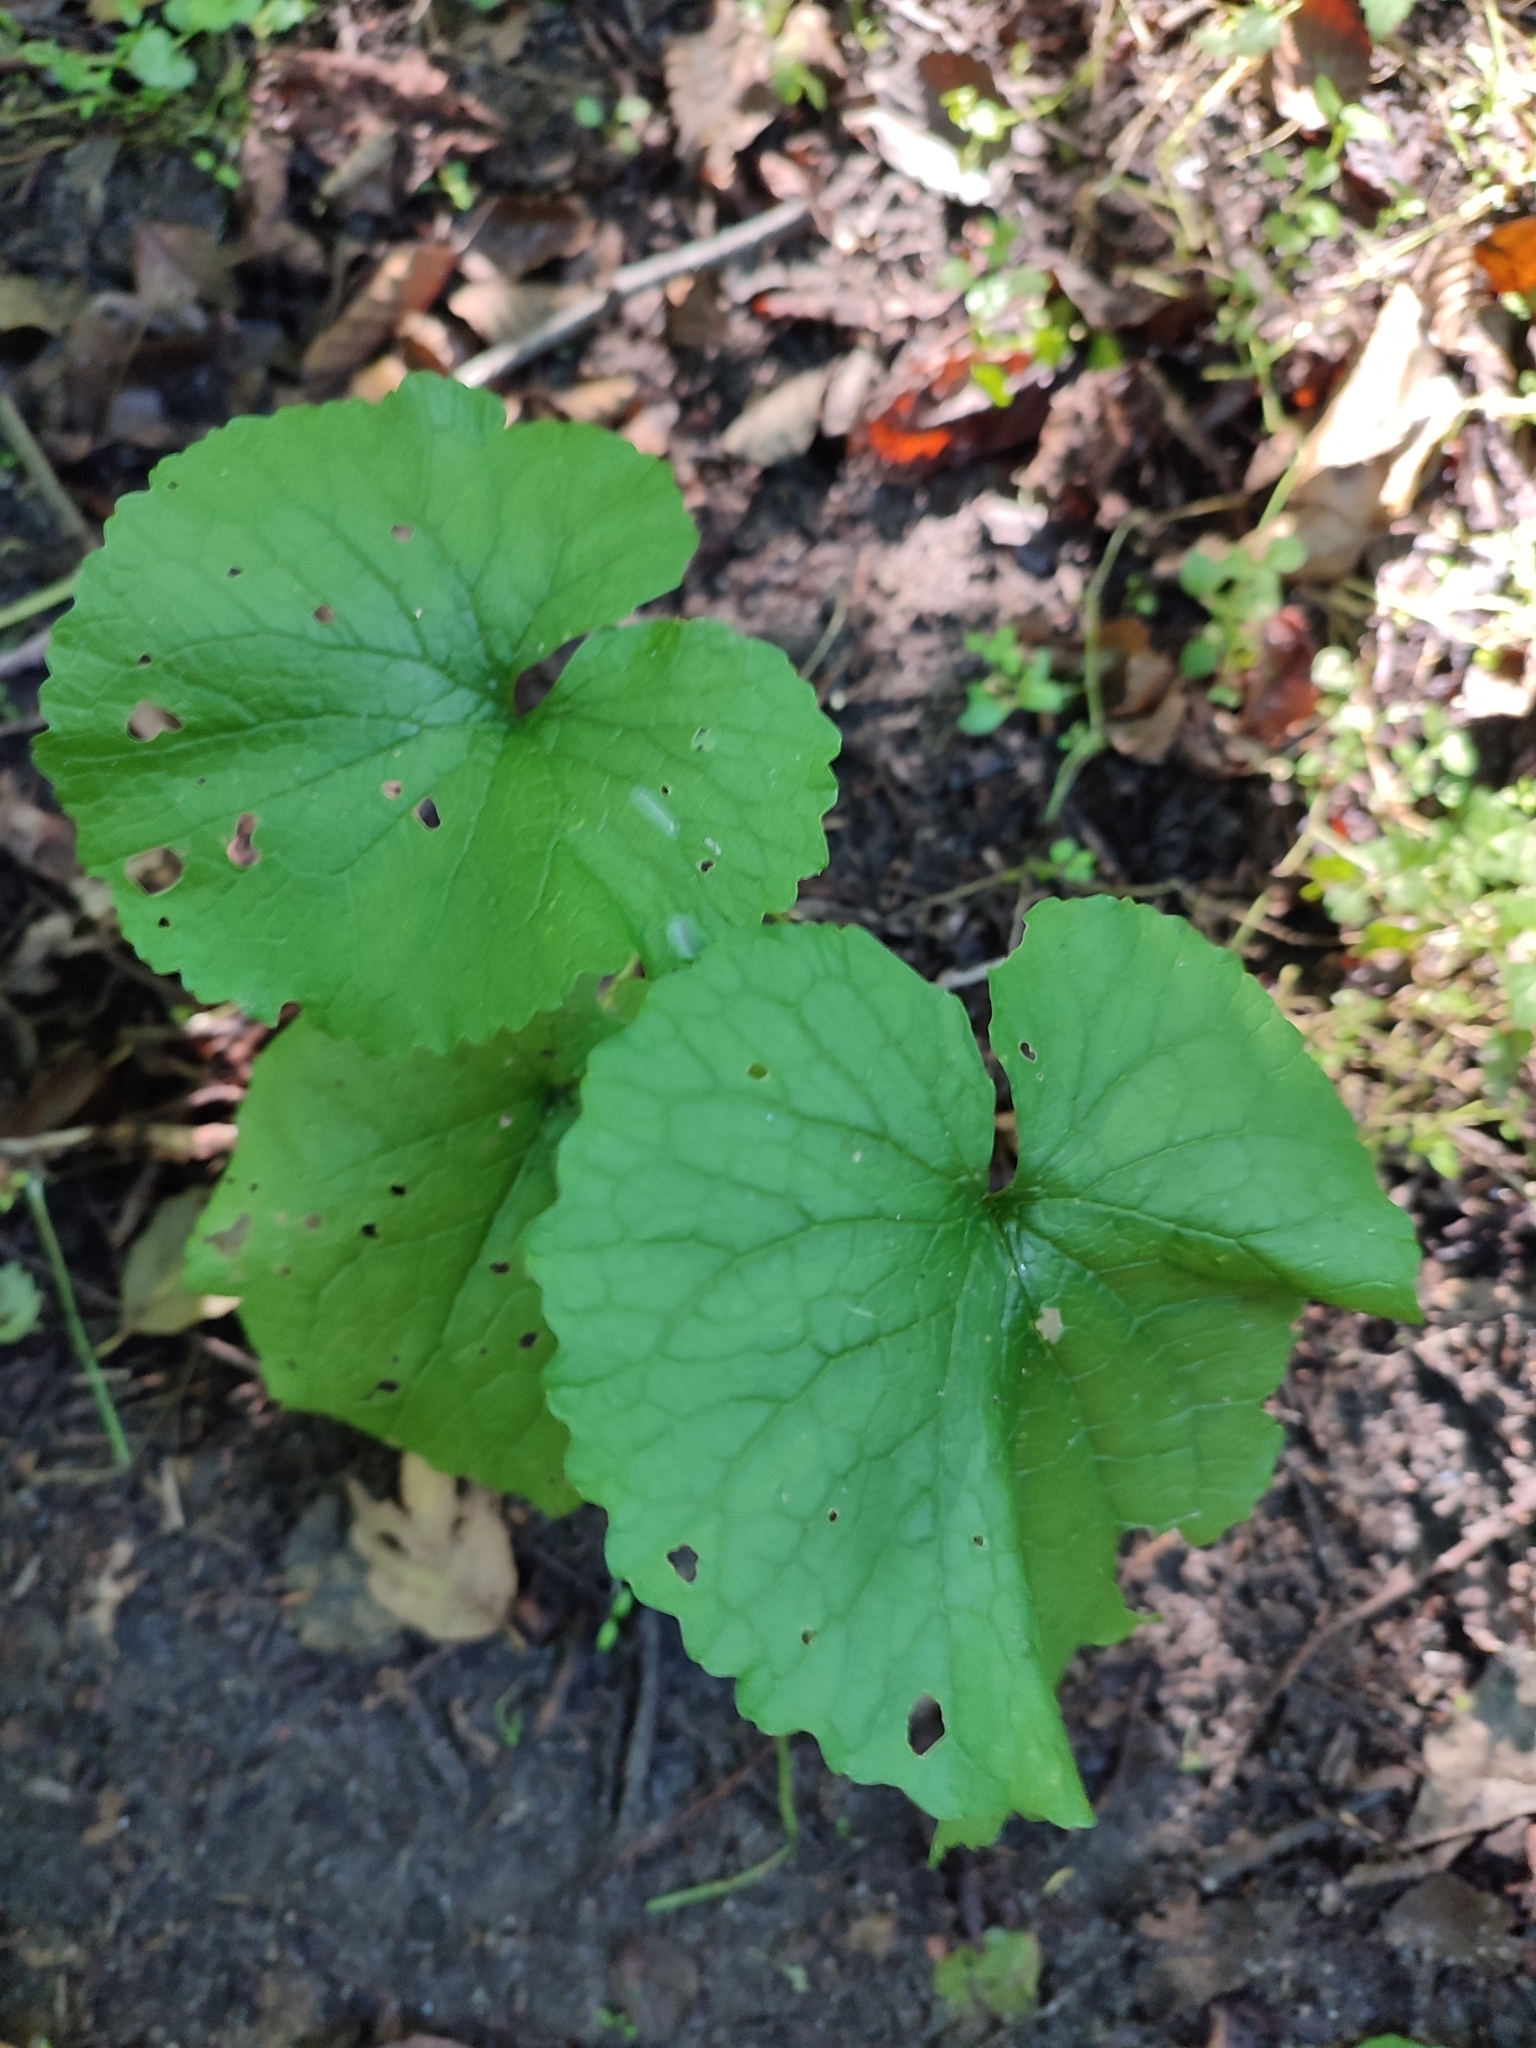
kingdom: Plantae
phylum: Tracheophyta
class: Magnoliopsida
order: Brassicales
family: Brassicaceae
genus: Alliaria
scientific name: Alliaria petiolata
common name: Garlic mustard
